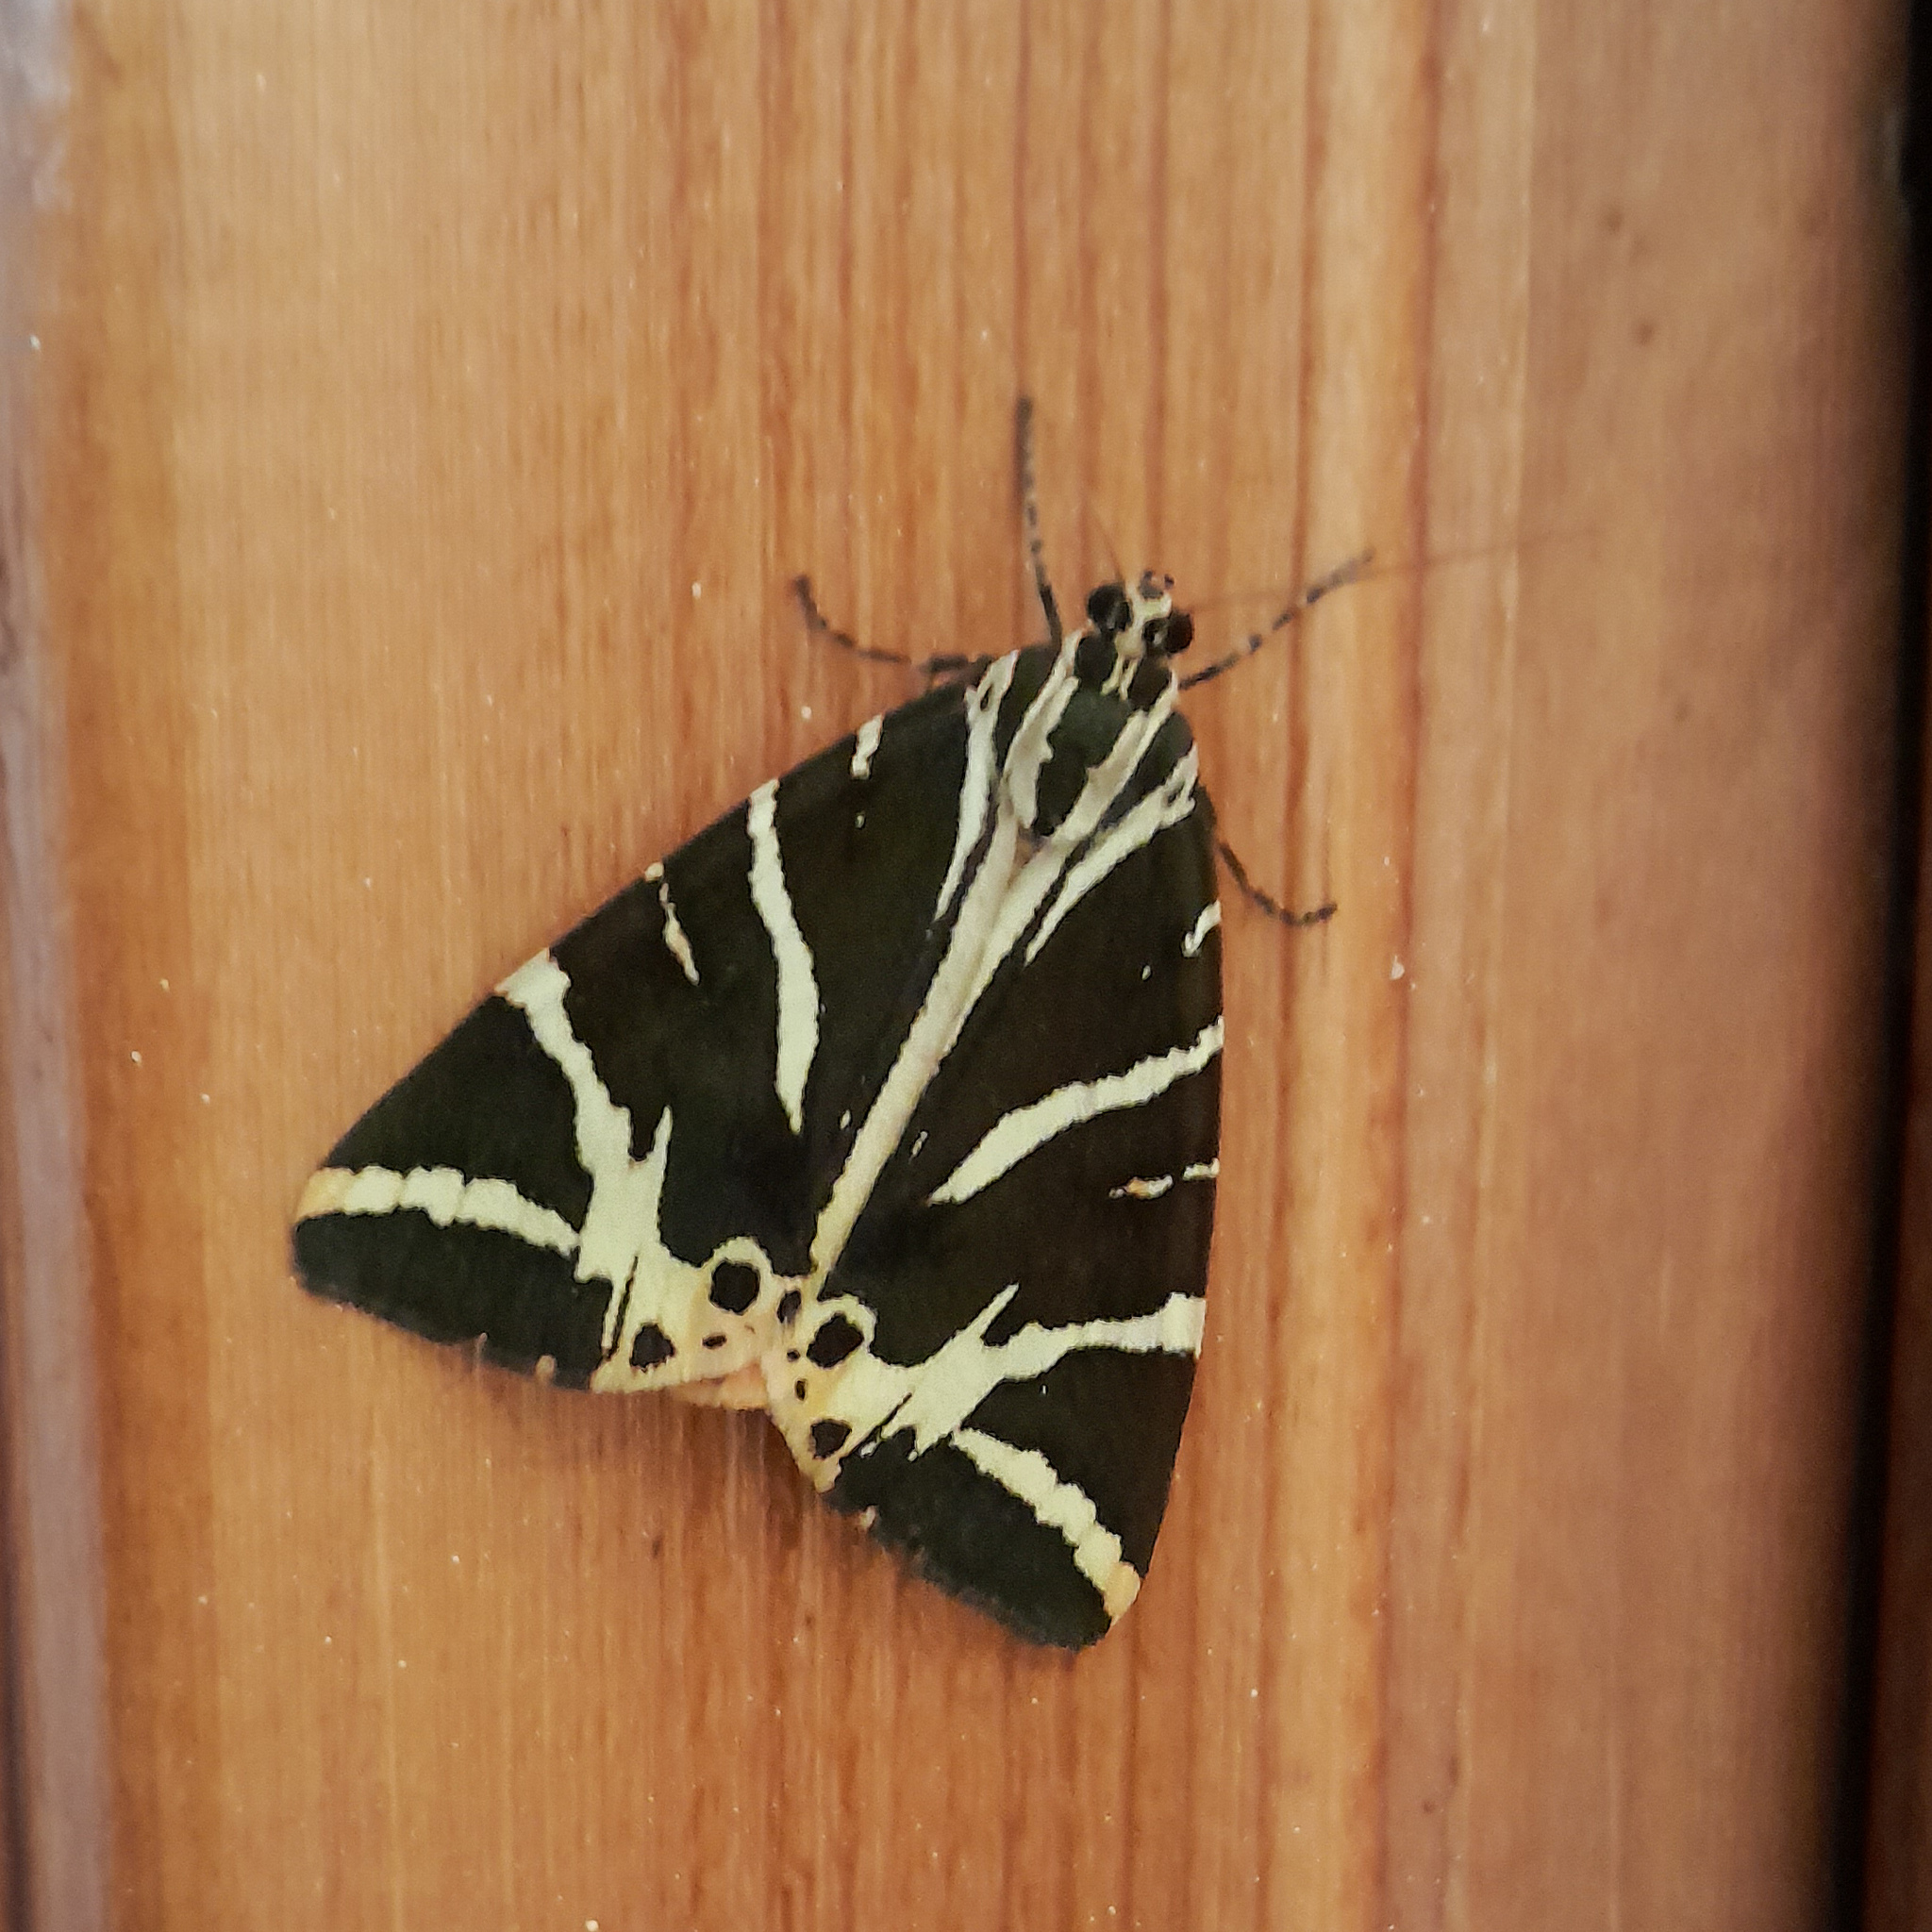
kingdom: Animalia
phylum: Arthropoda
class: Insecta
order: Lepidoptera
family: Erebidae
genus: Euplagia
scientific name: Euplagia quadripunctaria
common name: Jersey tiger
